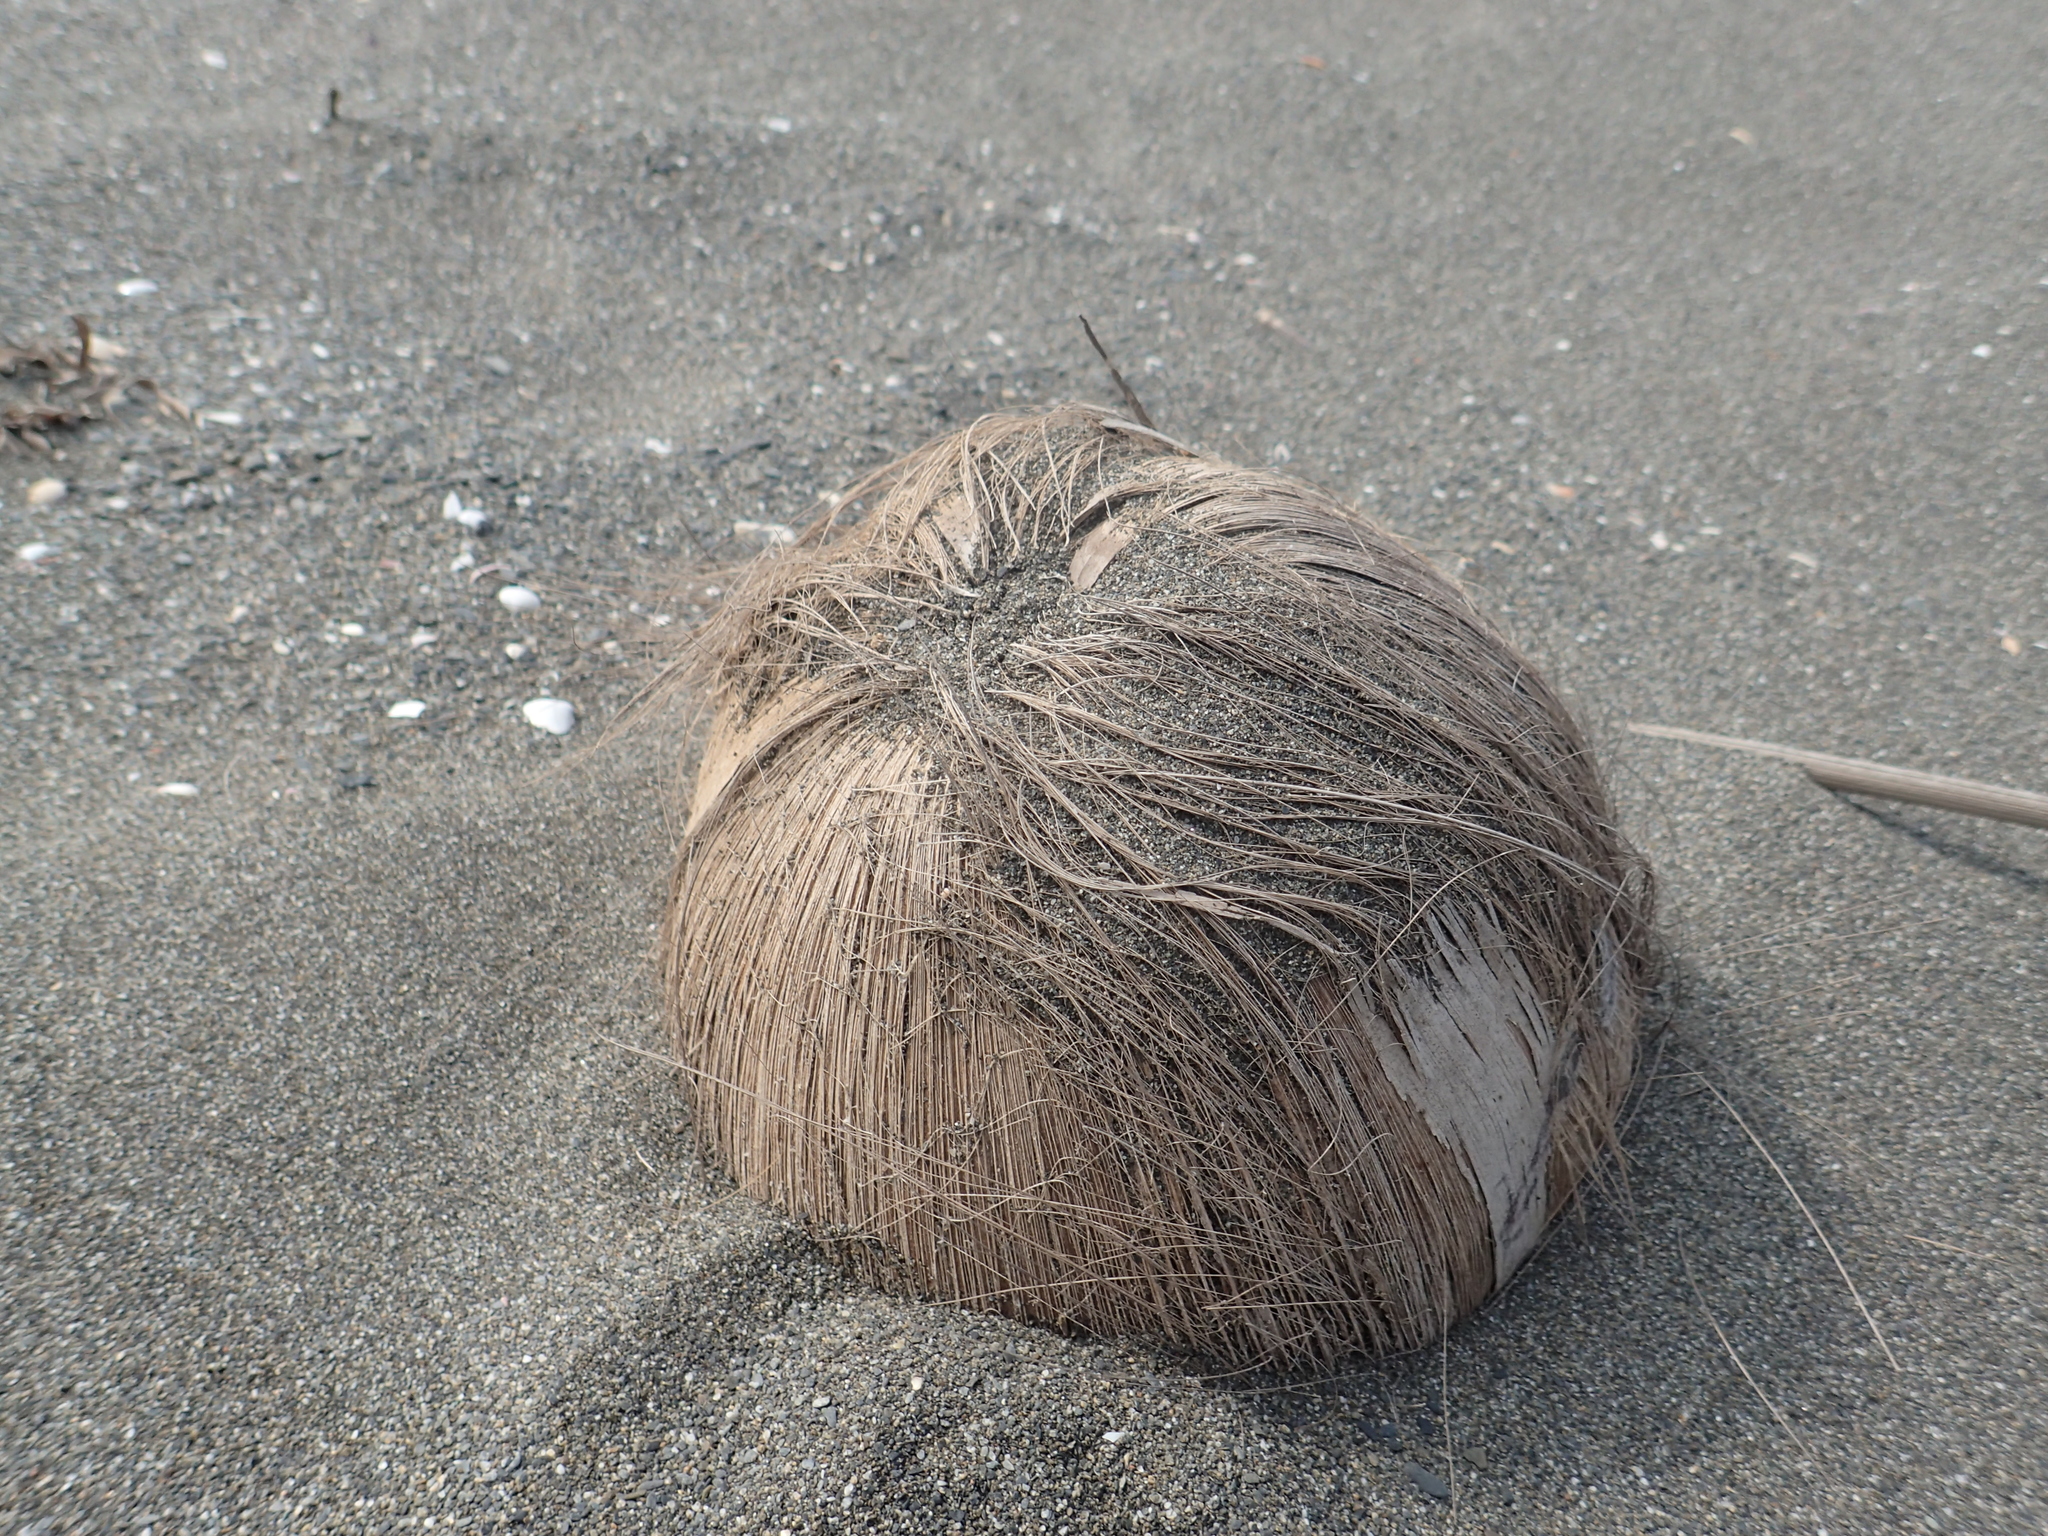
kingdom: Plantae
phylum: Tracheophyta
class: Liliopsida
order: Arecales
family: Arecaceae
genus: Cocos
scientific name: Cocos nucifera
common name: Coconut palm
